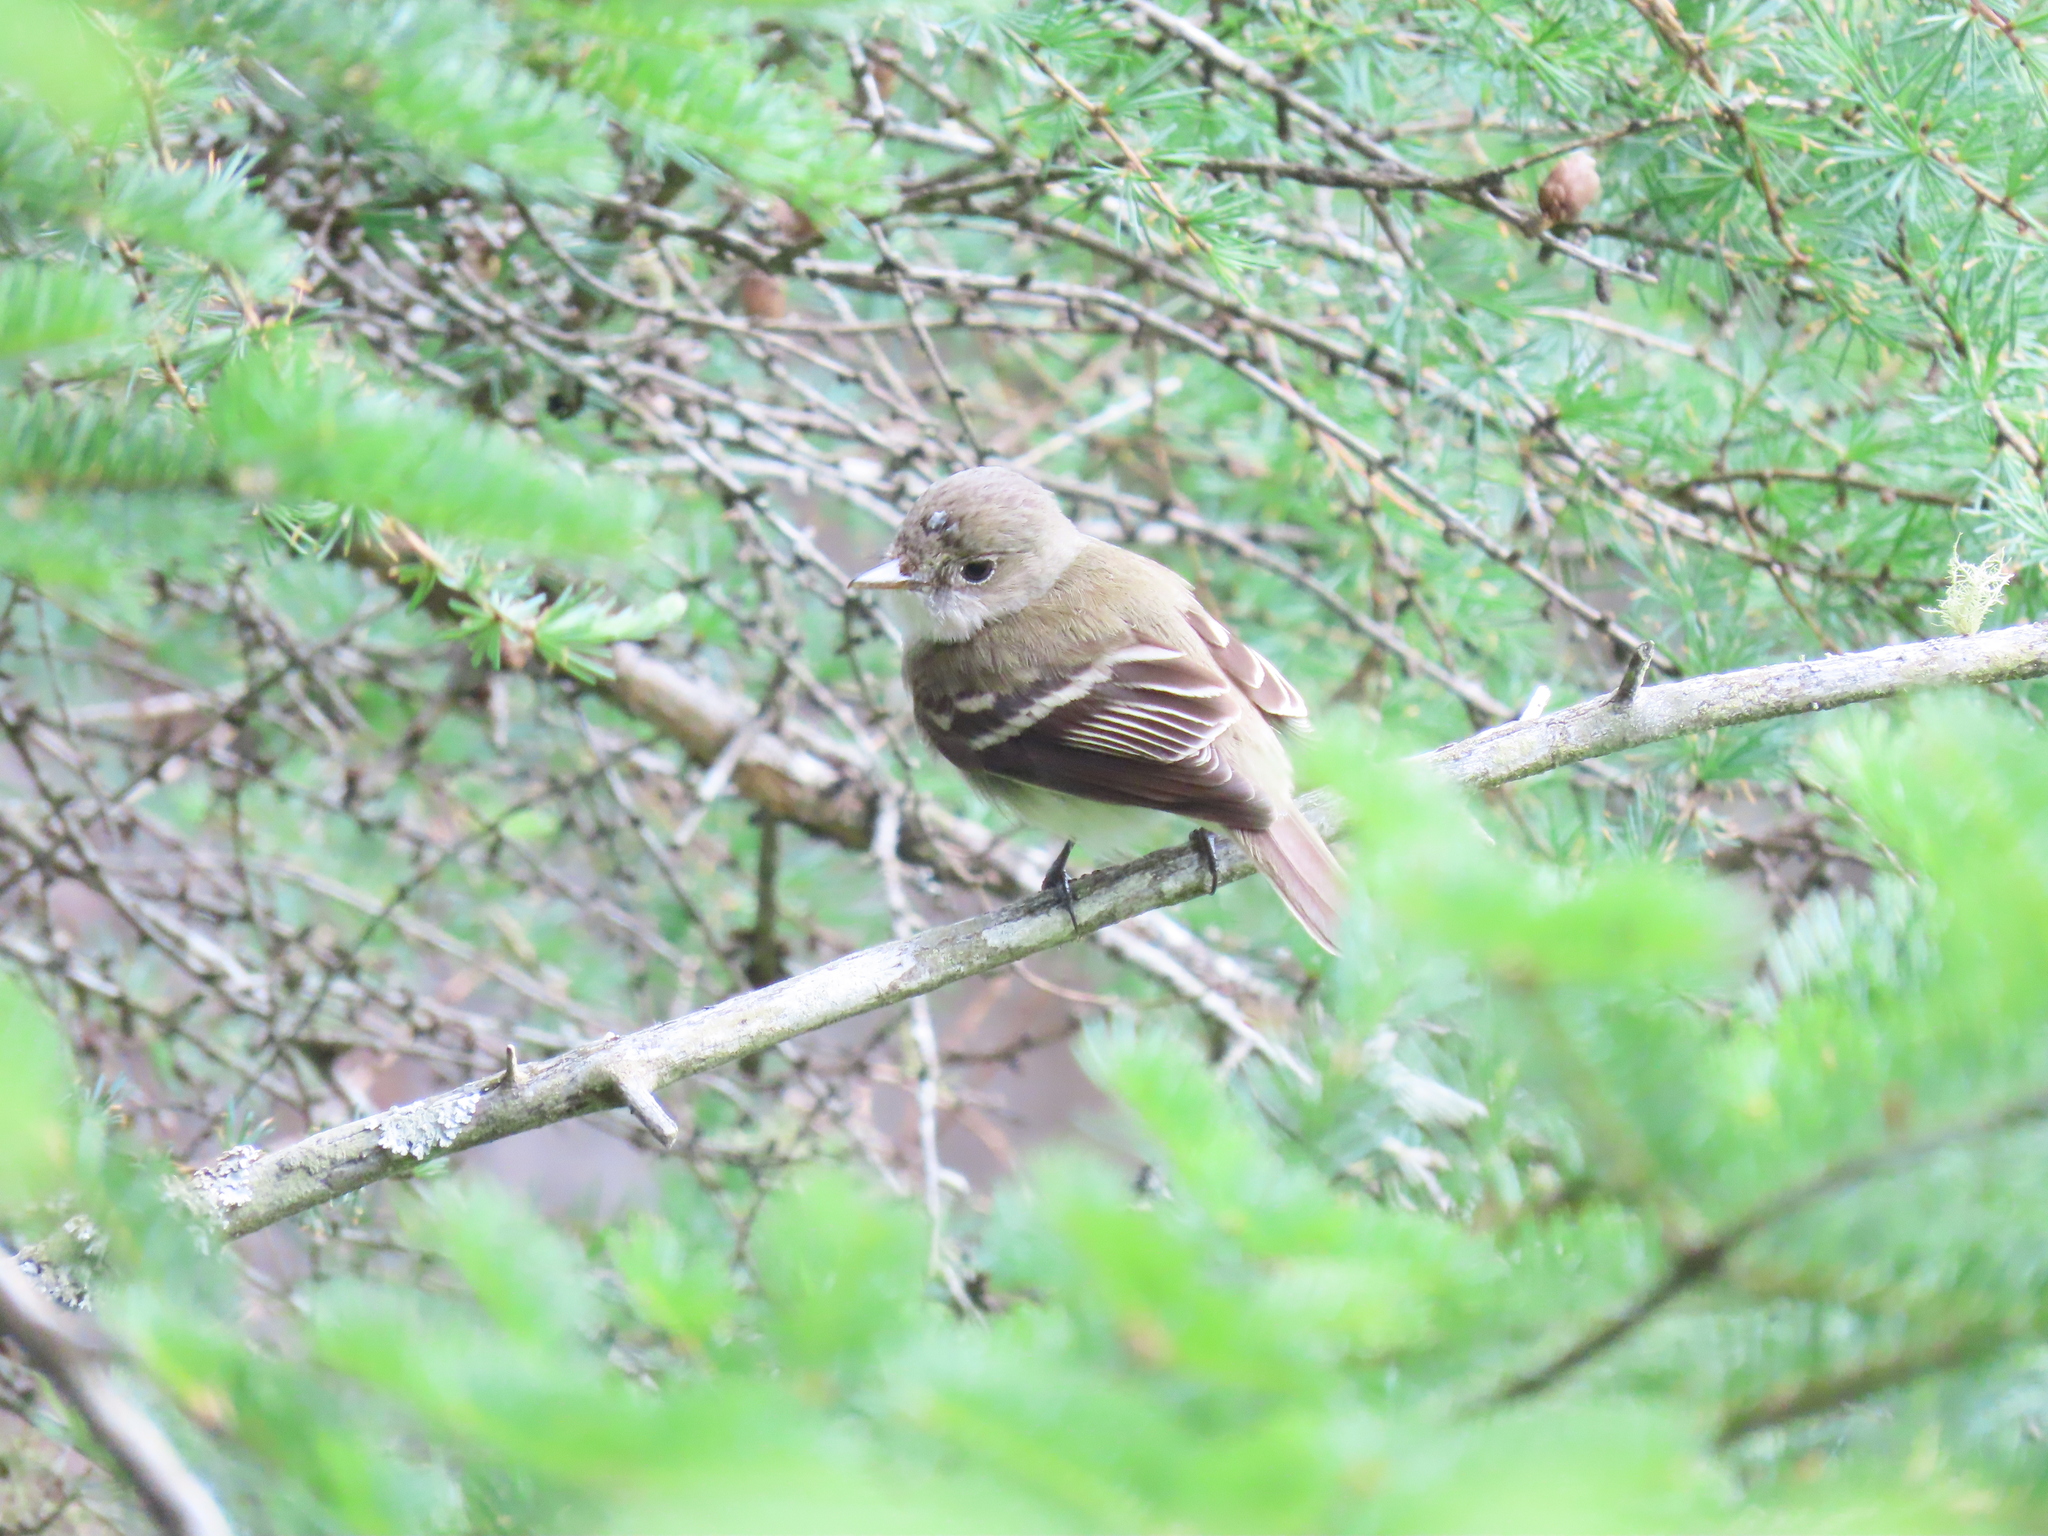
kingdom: Animalia
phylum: Chordata
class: Aves
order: Passeriformes
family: Tyrannidae
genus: Empidonax
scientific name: Empidonax traillii
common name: Willow flycatcher
